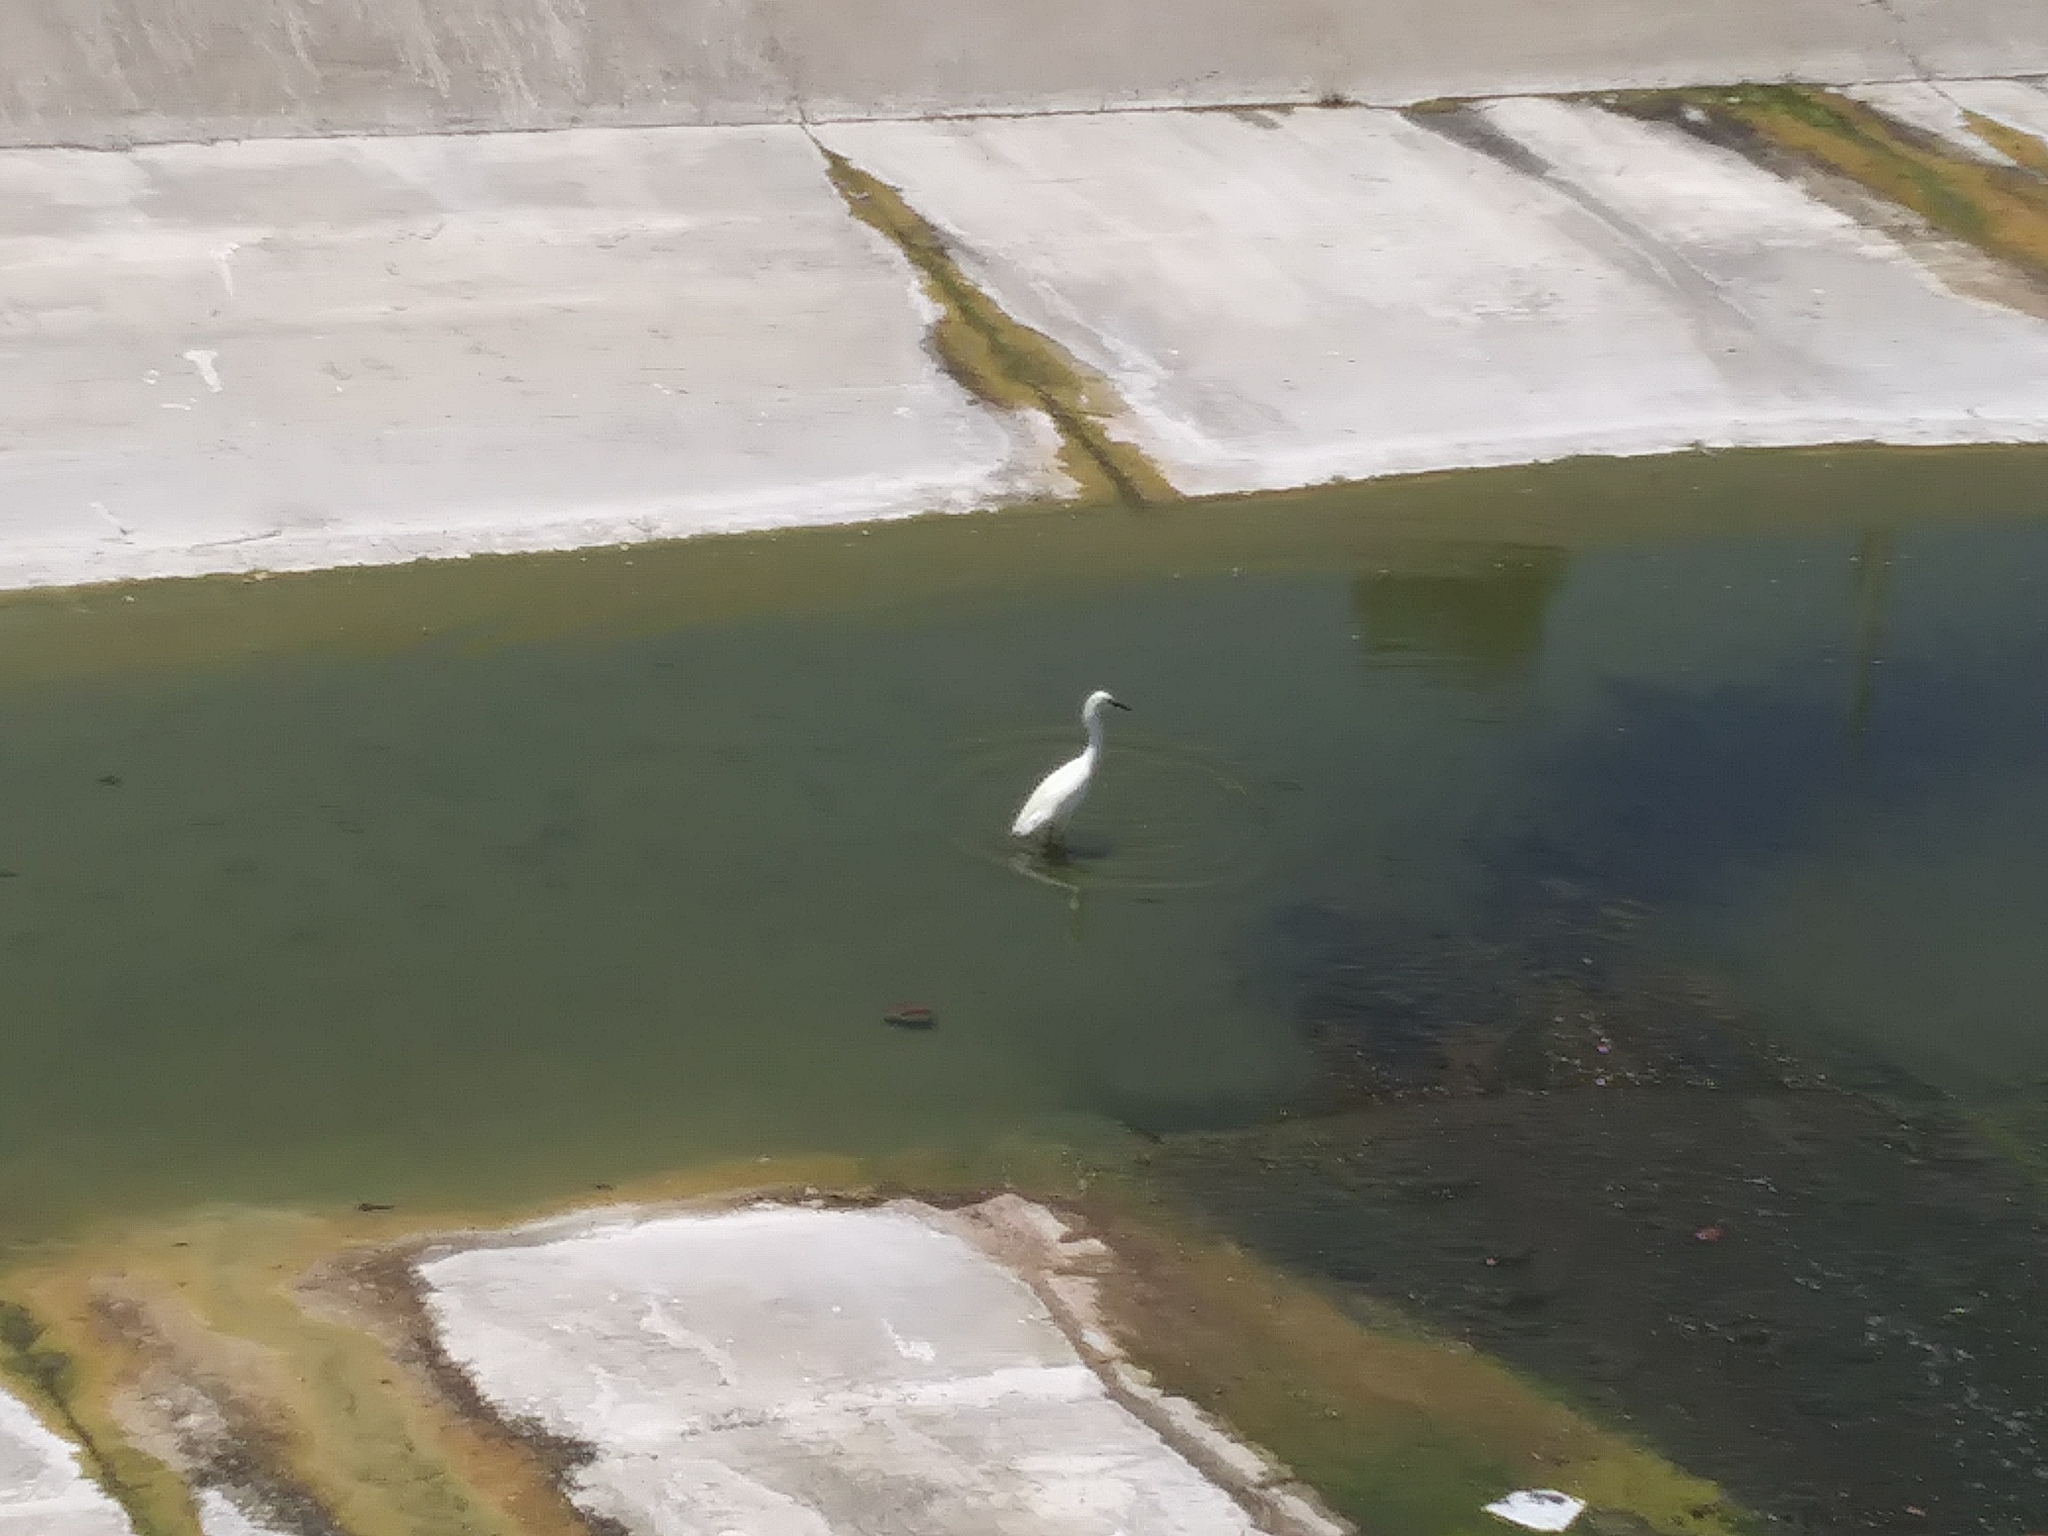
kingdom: Animalia
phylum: Chordata
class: Aves
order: Pelecaniformes
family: Ardeidae
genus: Egretta
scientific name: Egretta thula
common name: Snowy egret
